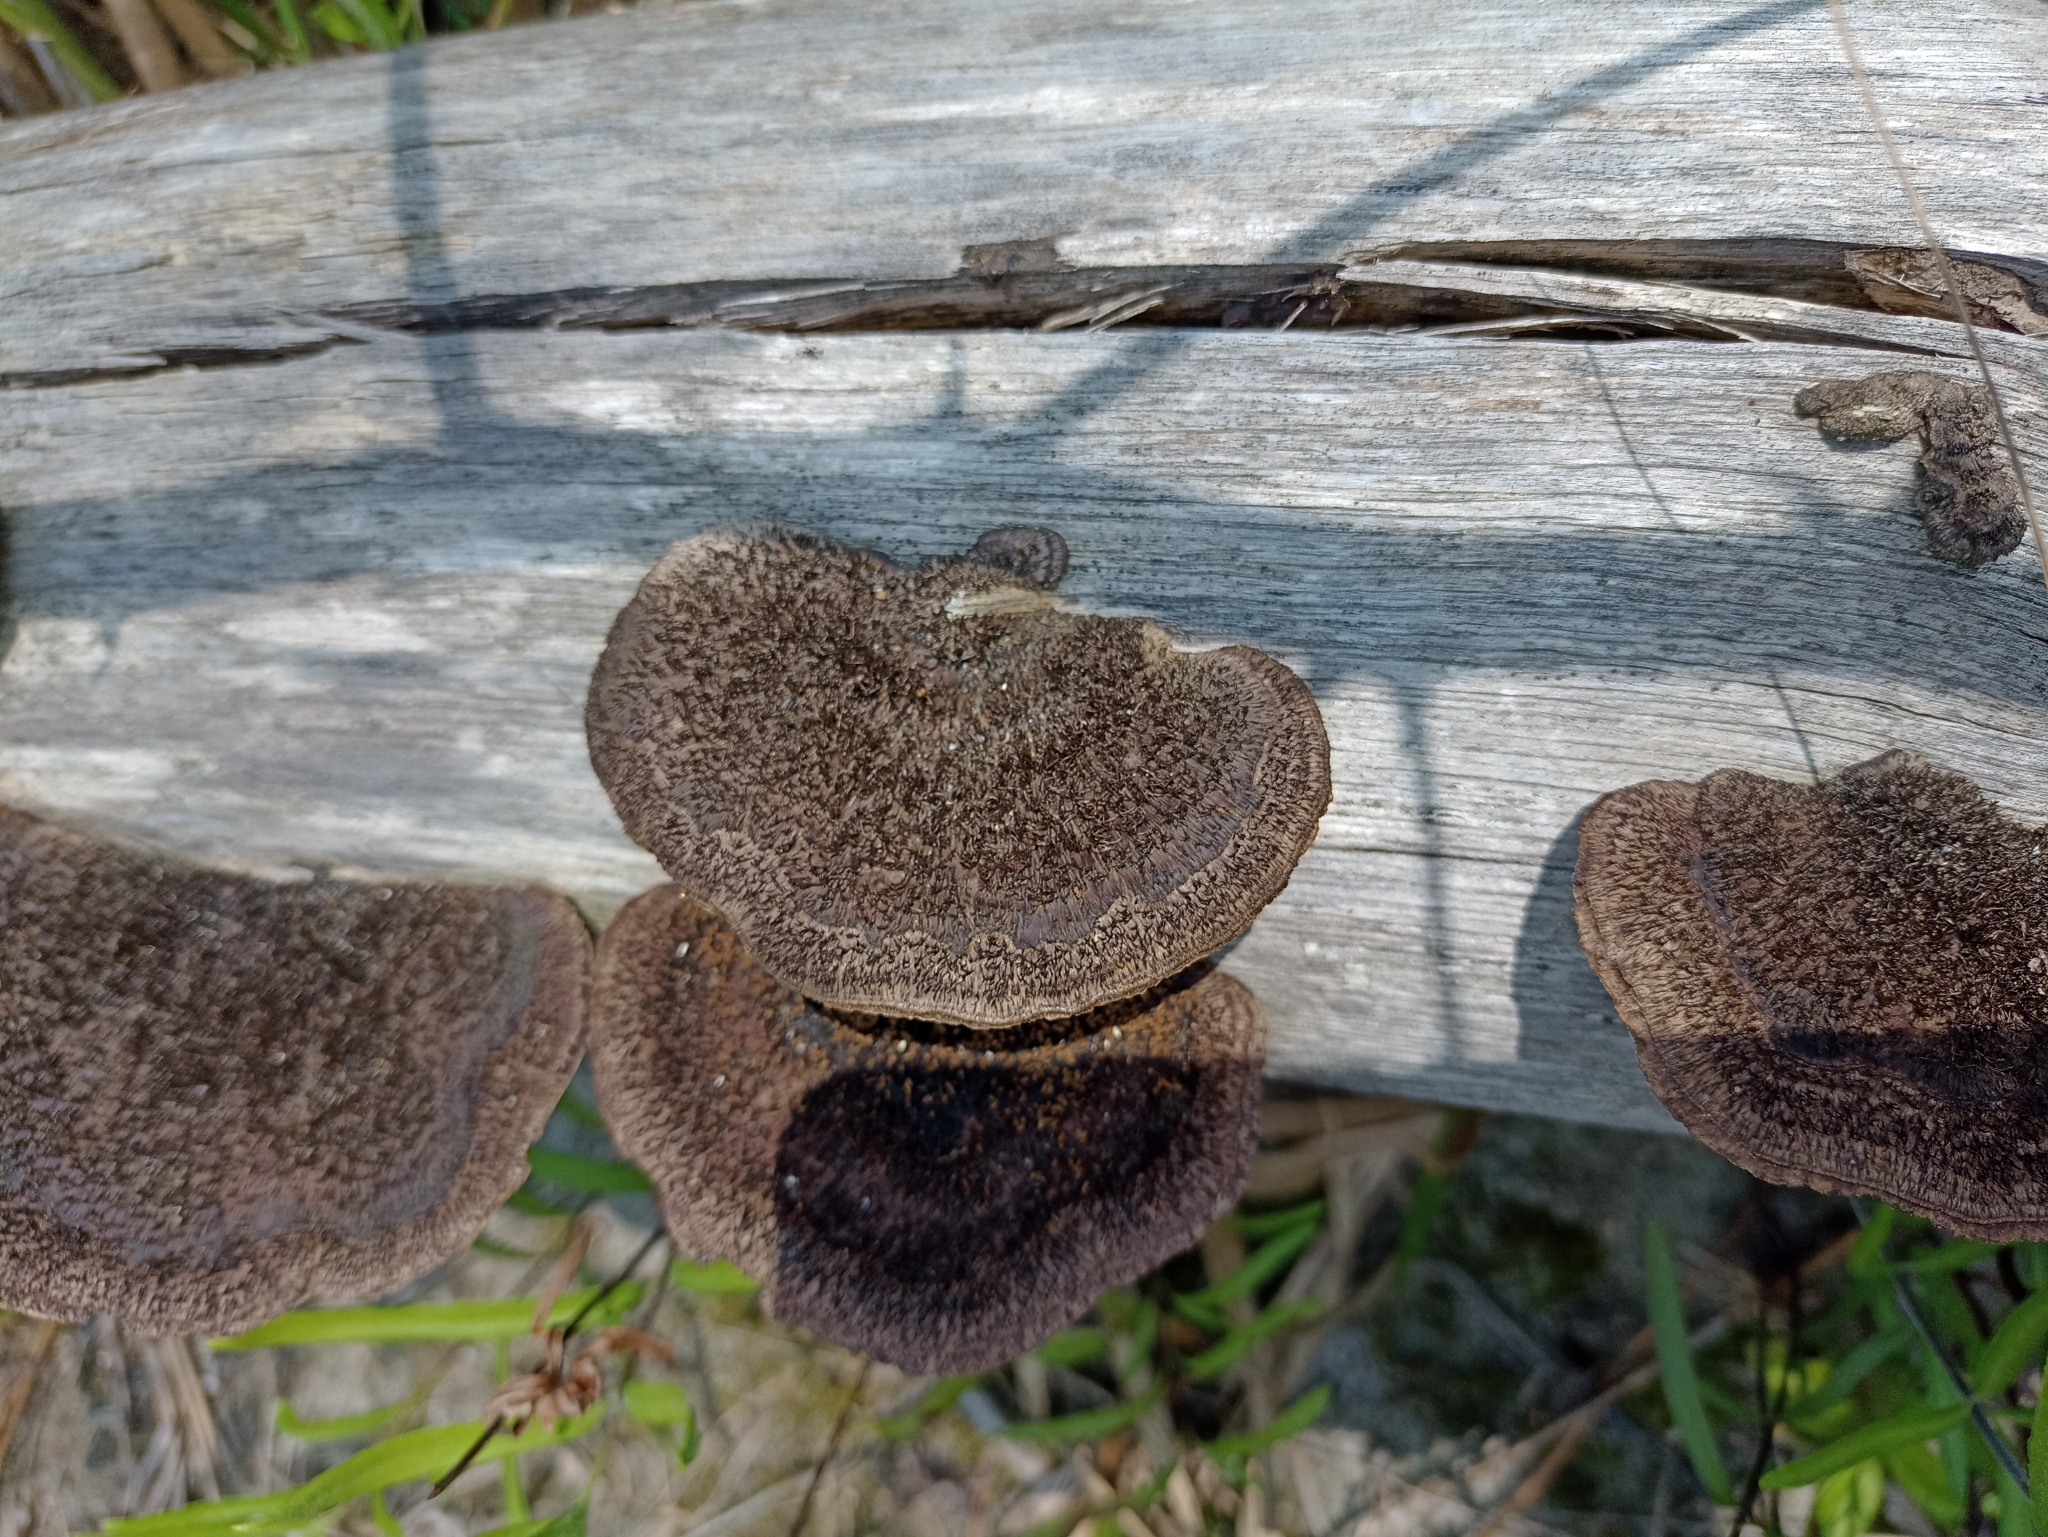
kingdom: Fungi
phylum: Basidiomycota
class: Agaricomycetes
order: Polyporales
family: Cerrenaceae
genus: Cerrena
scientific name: Cerrena hydnoides
